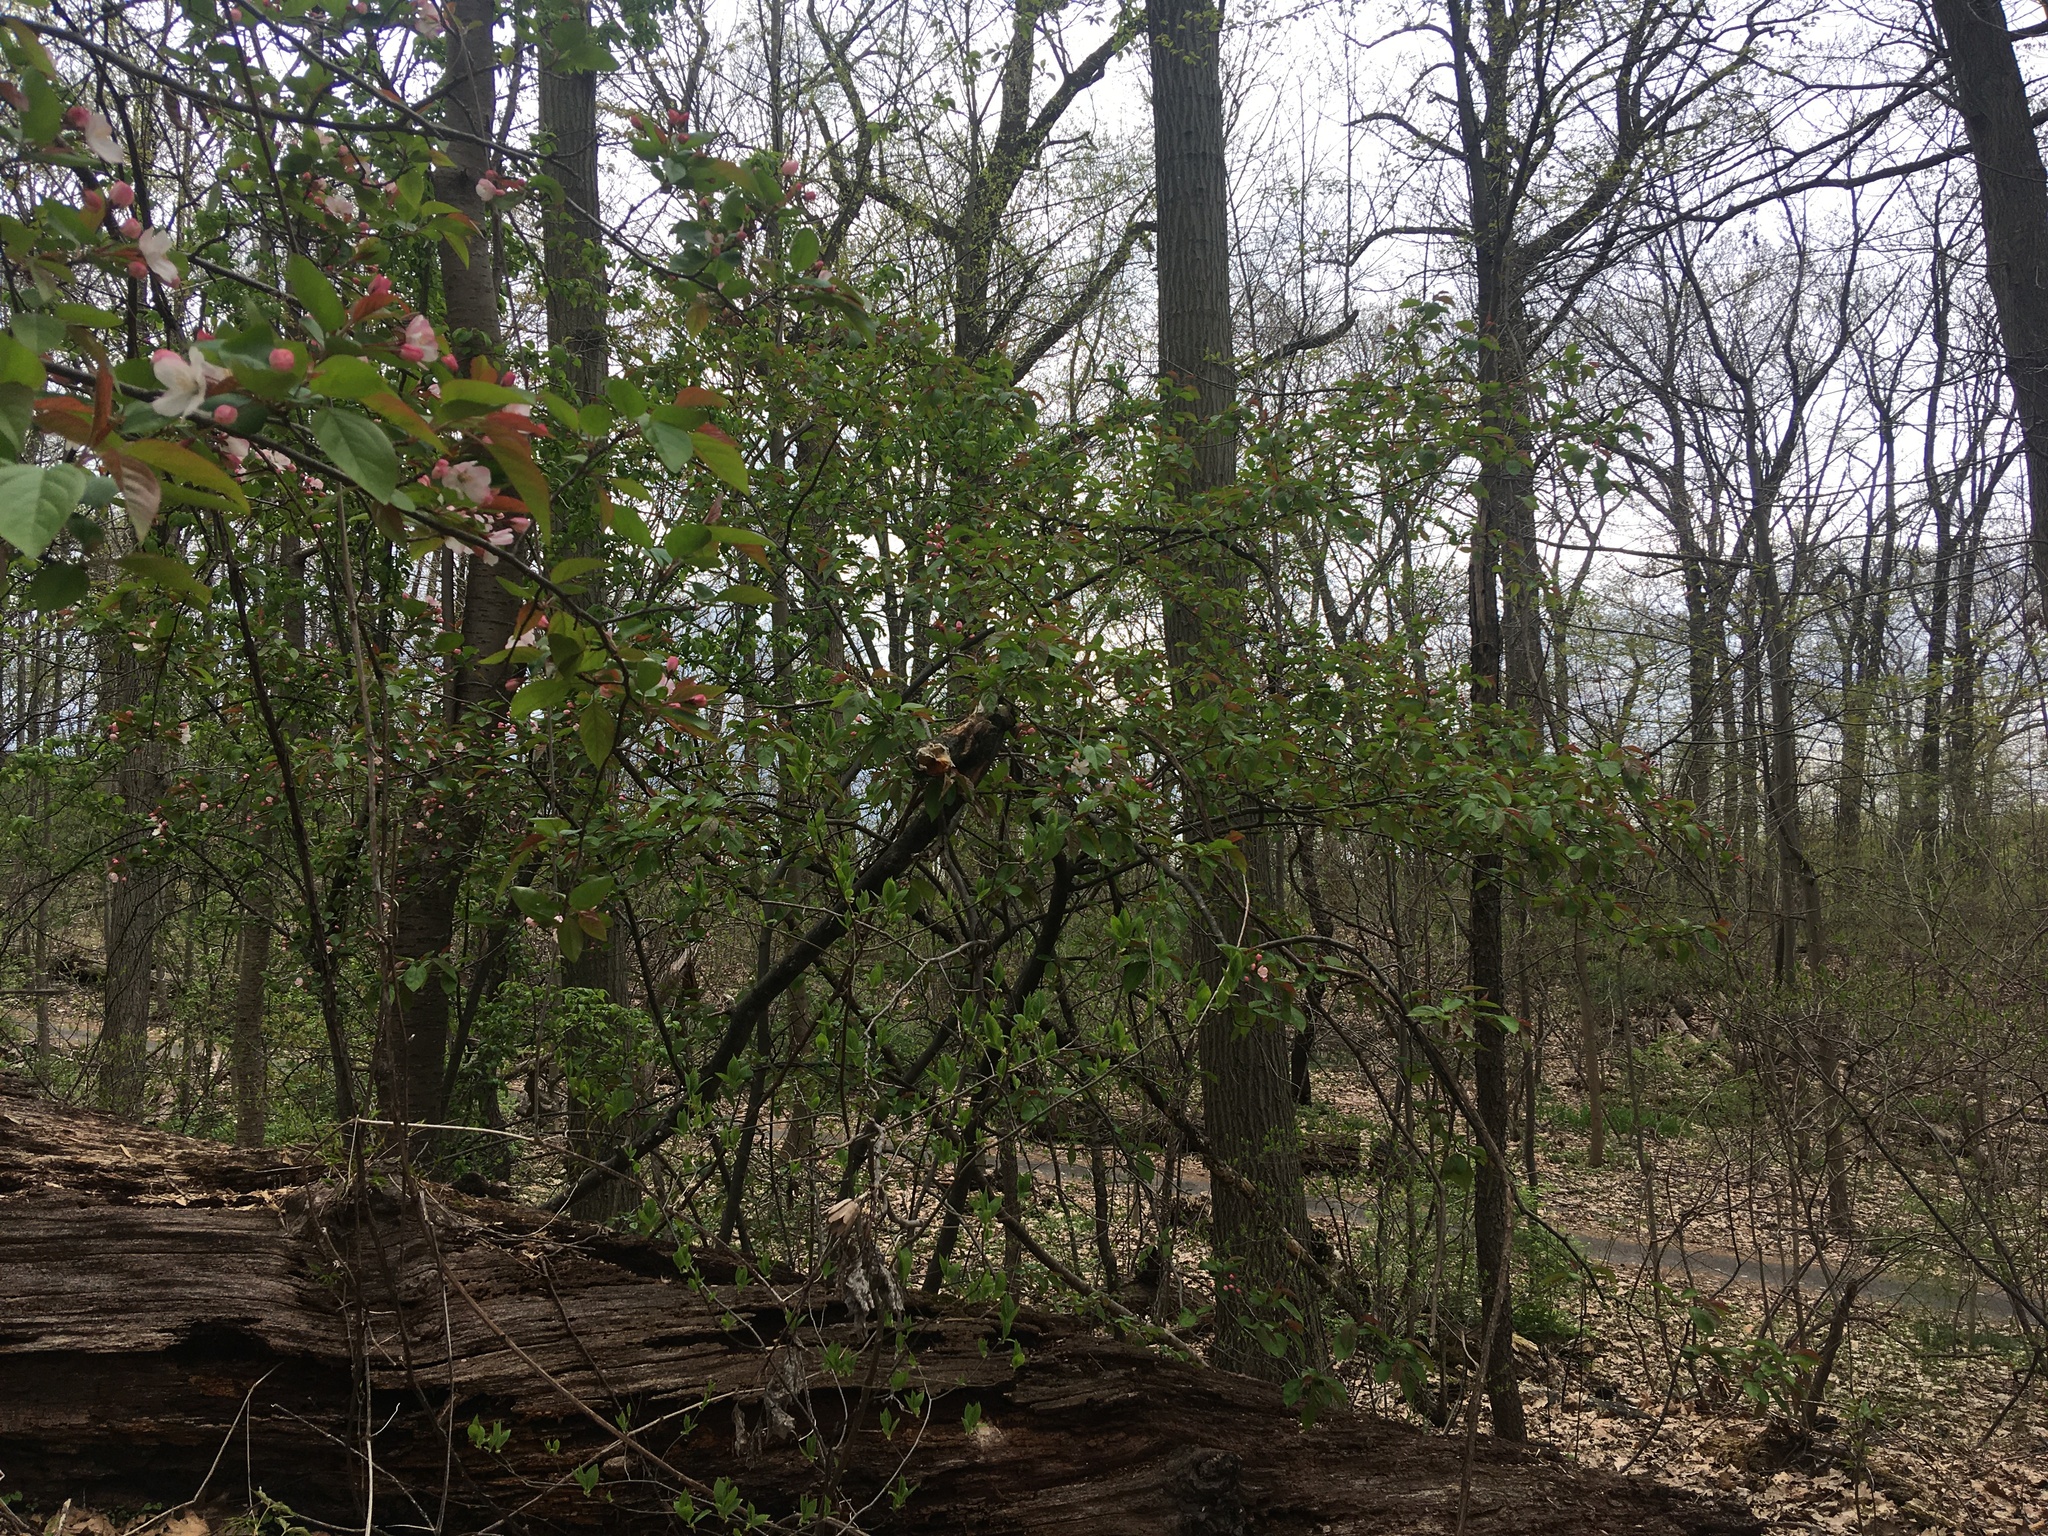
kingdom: Plantae
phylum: Tracheophyta
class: Magnoliopsida
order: Rosales
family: Rosaceae
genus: Malus
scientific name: Malus hupehensis
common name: Chinese crab apple
